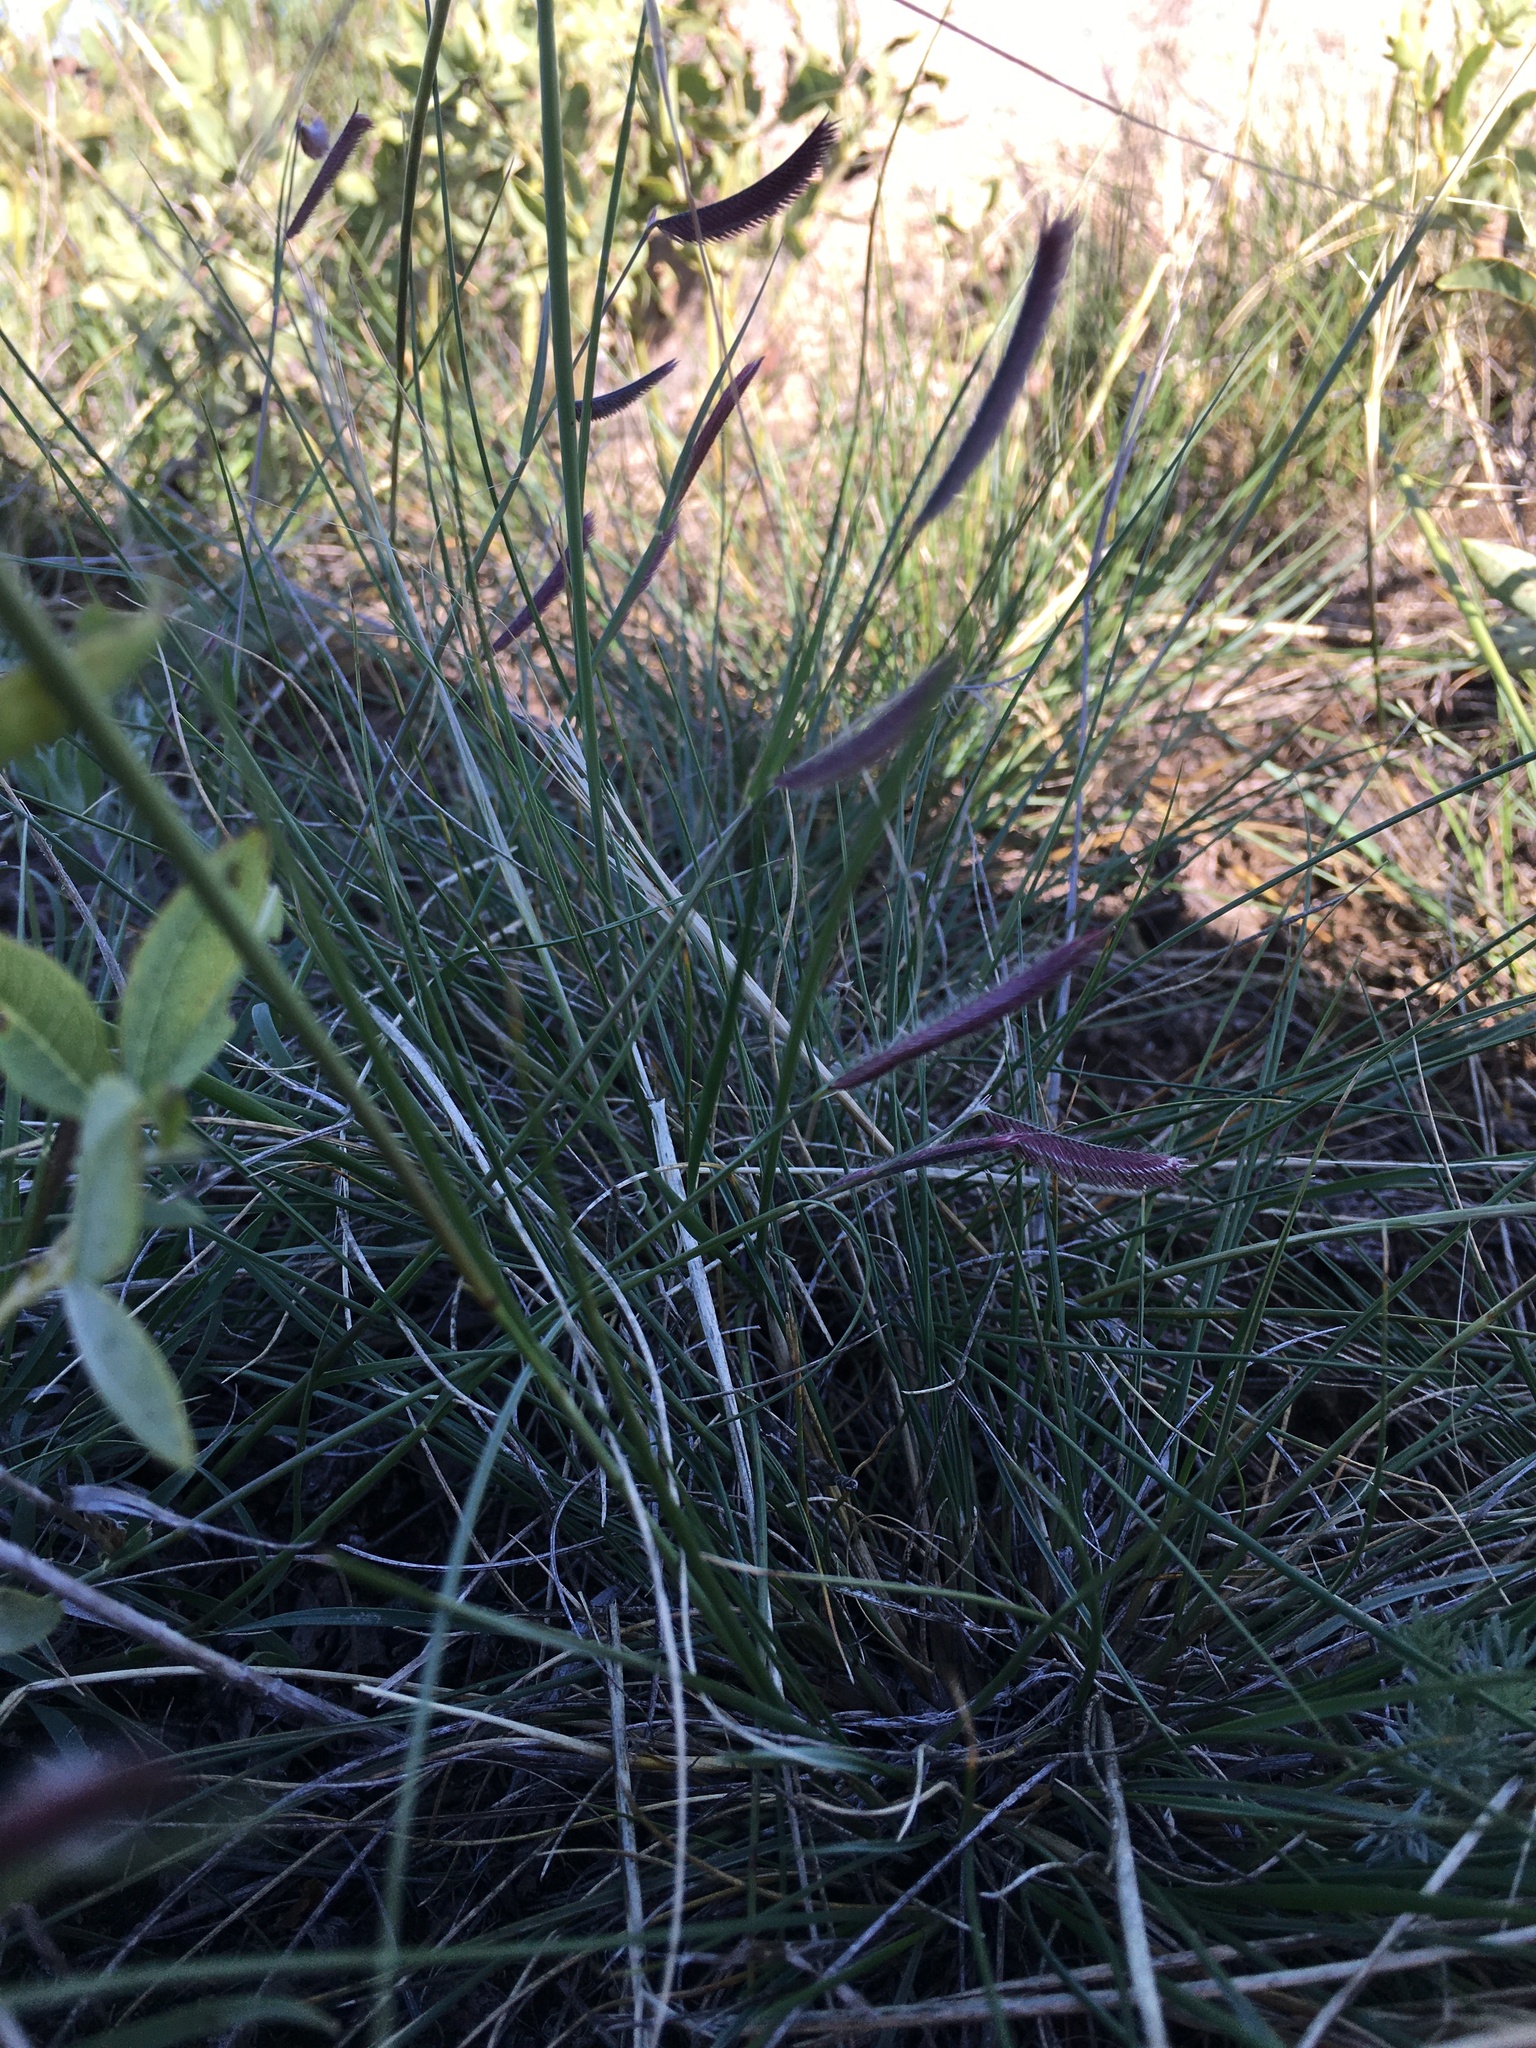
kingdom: Plantae
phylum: Tracheophyta
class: Liliopsida
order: Poales
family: Poaceae
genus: Bouteloua
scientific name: Bouteloua gracilis
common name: Blue grama
